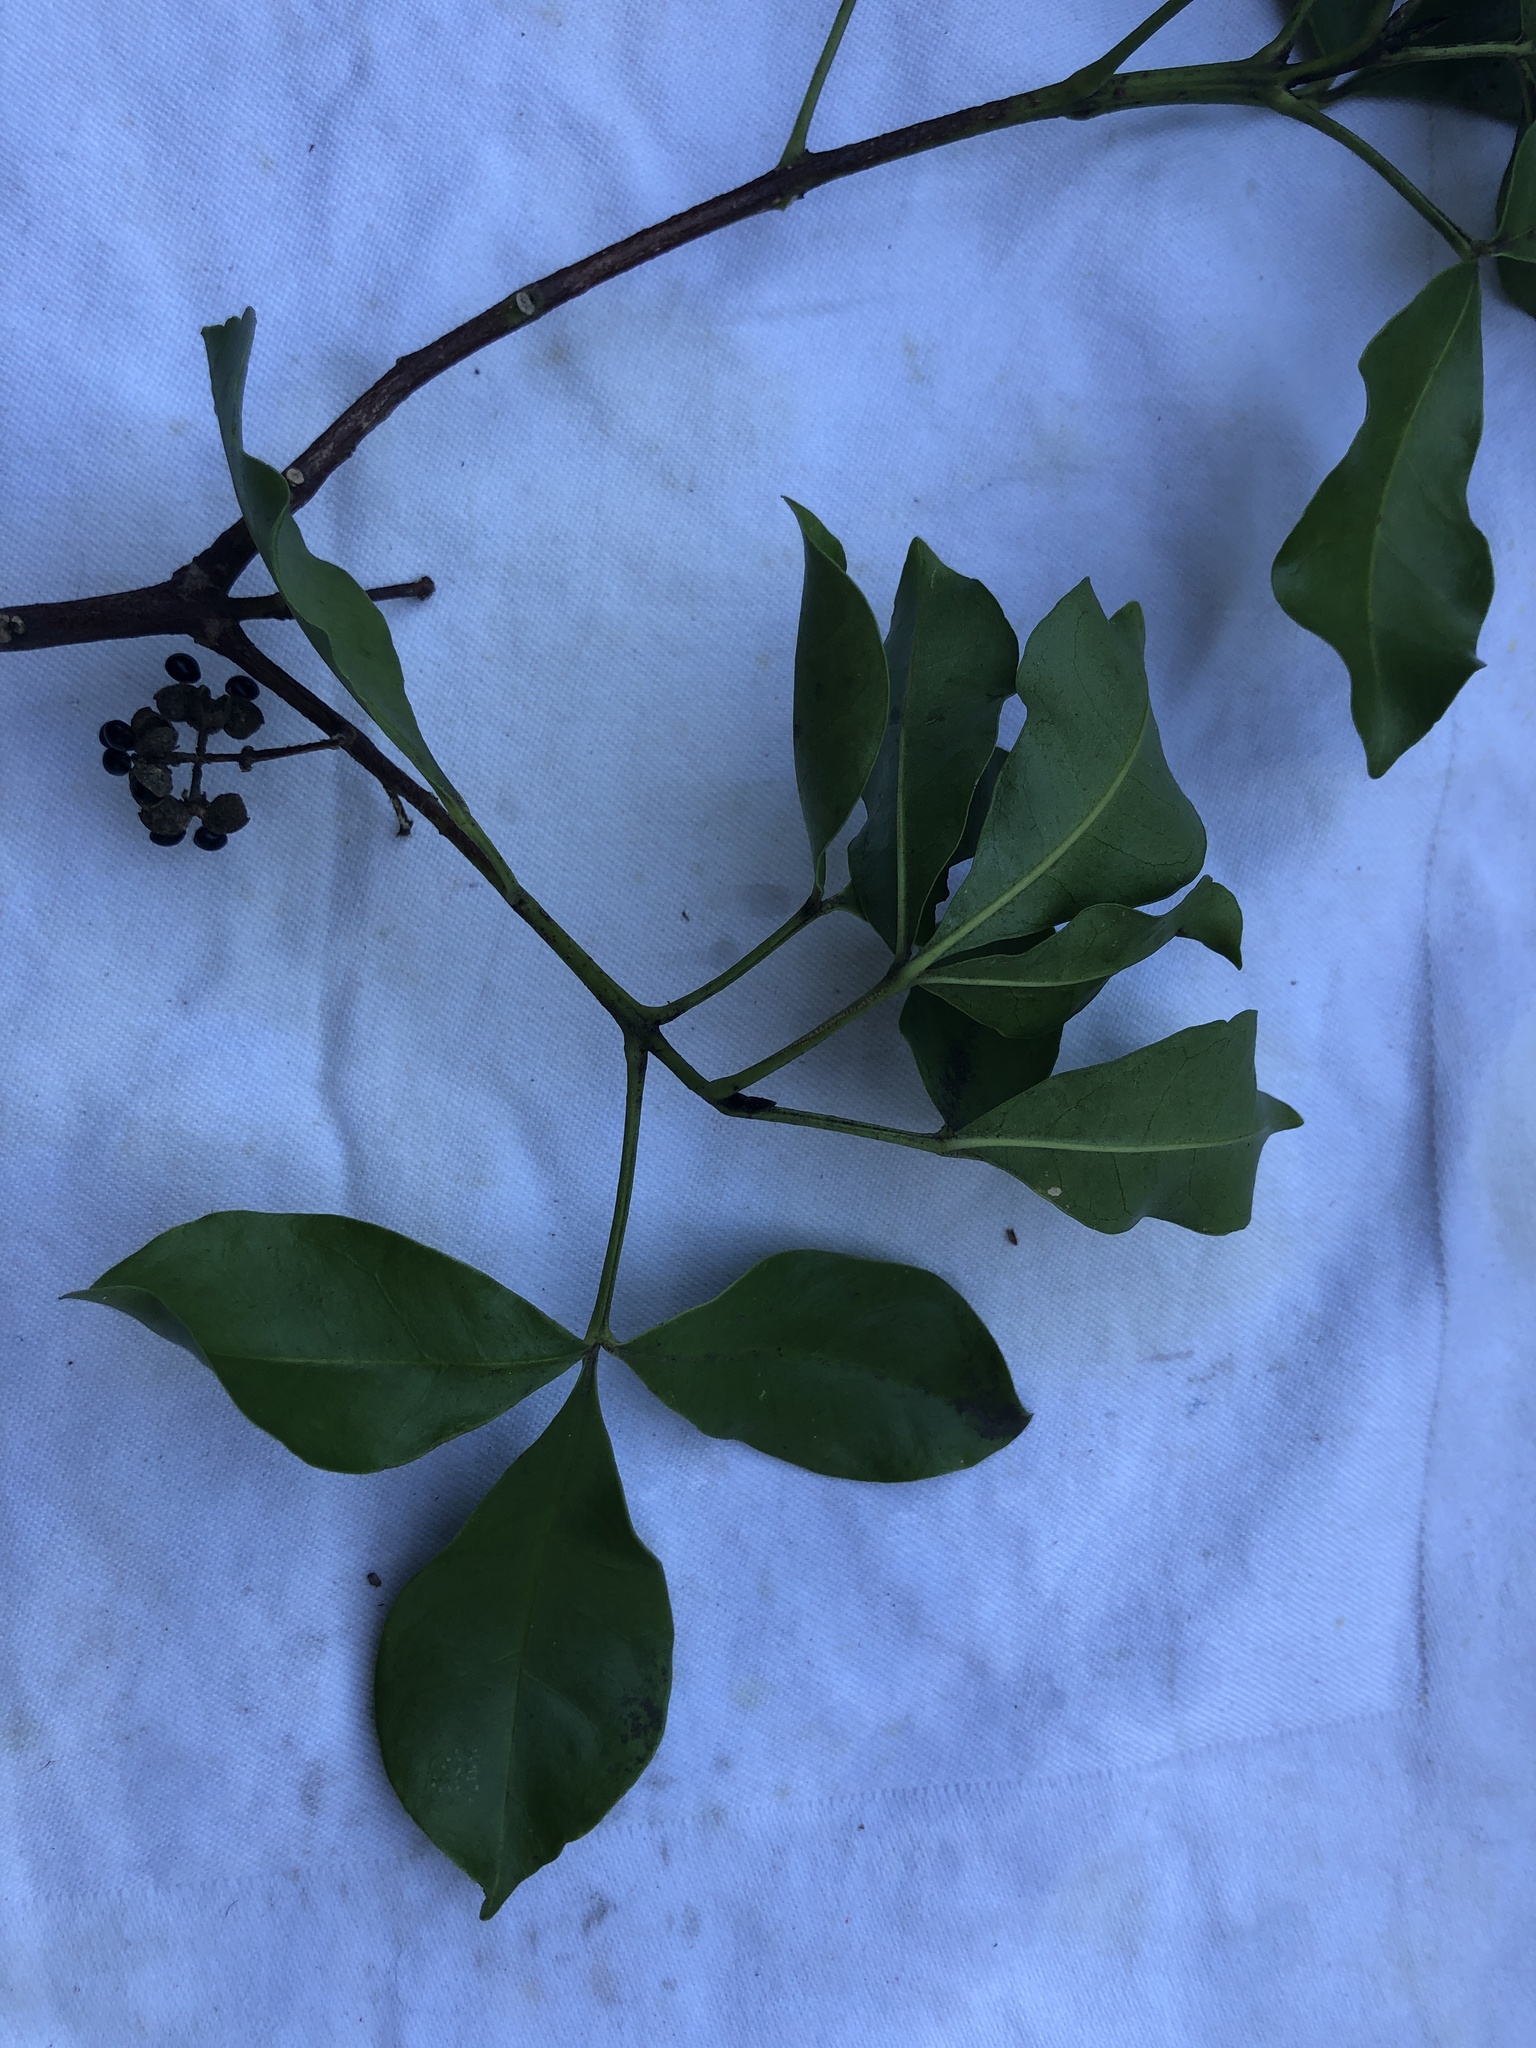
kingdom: Plantae
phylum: Tracheophyta
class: Magnoliopsida
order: Sapindales
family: Rutaceae
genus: Melicope
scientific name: Melicope ternata
